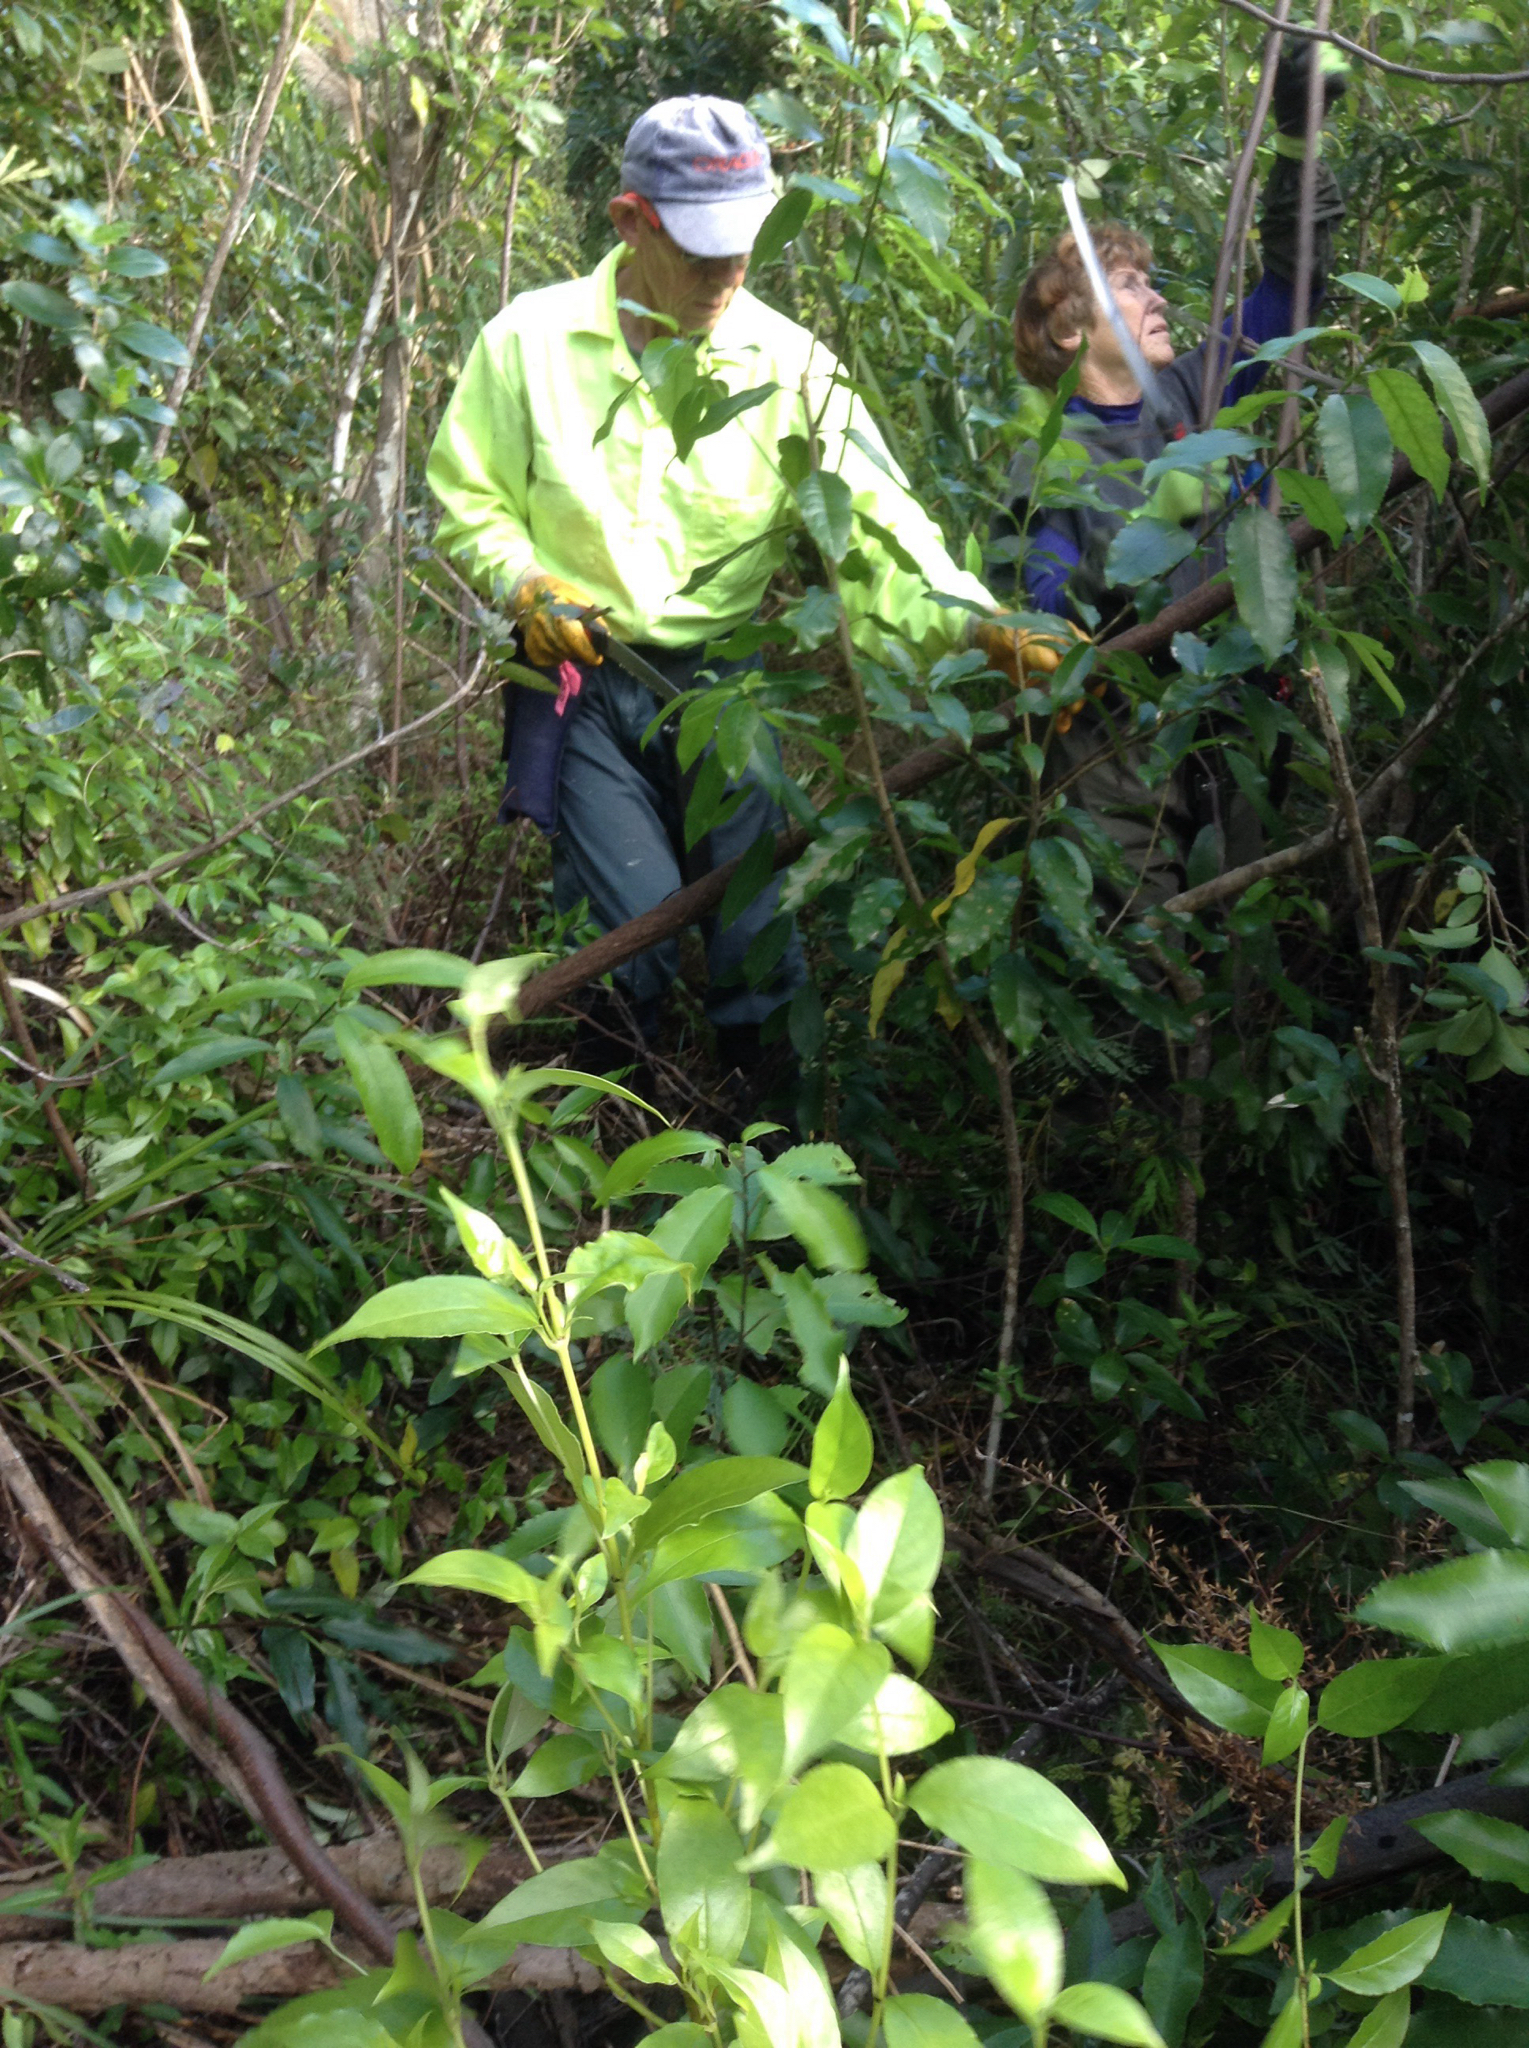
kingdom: Plantae
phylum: Tracheophyta
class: Magnoliopsida
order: Fabales
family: Fabaceae
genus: Paraserianthes
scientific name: Paraserianthes lophantha
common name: Plume albizia
